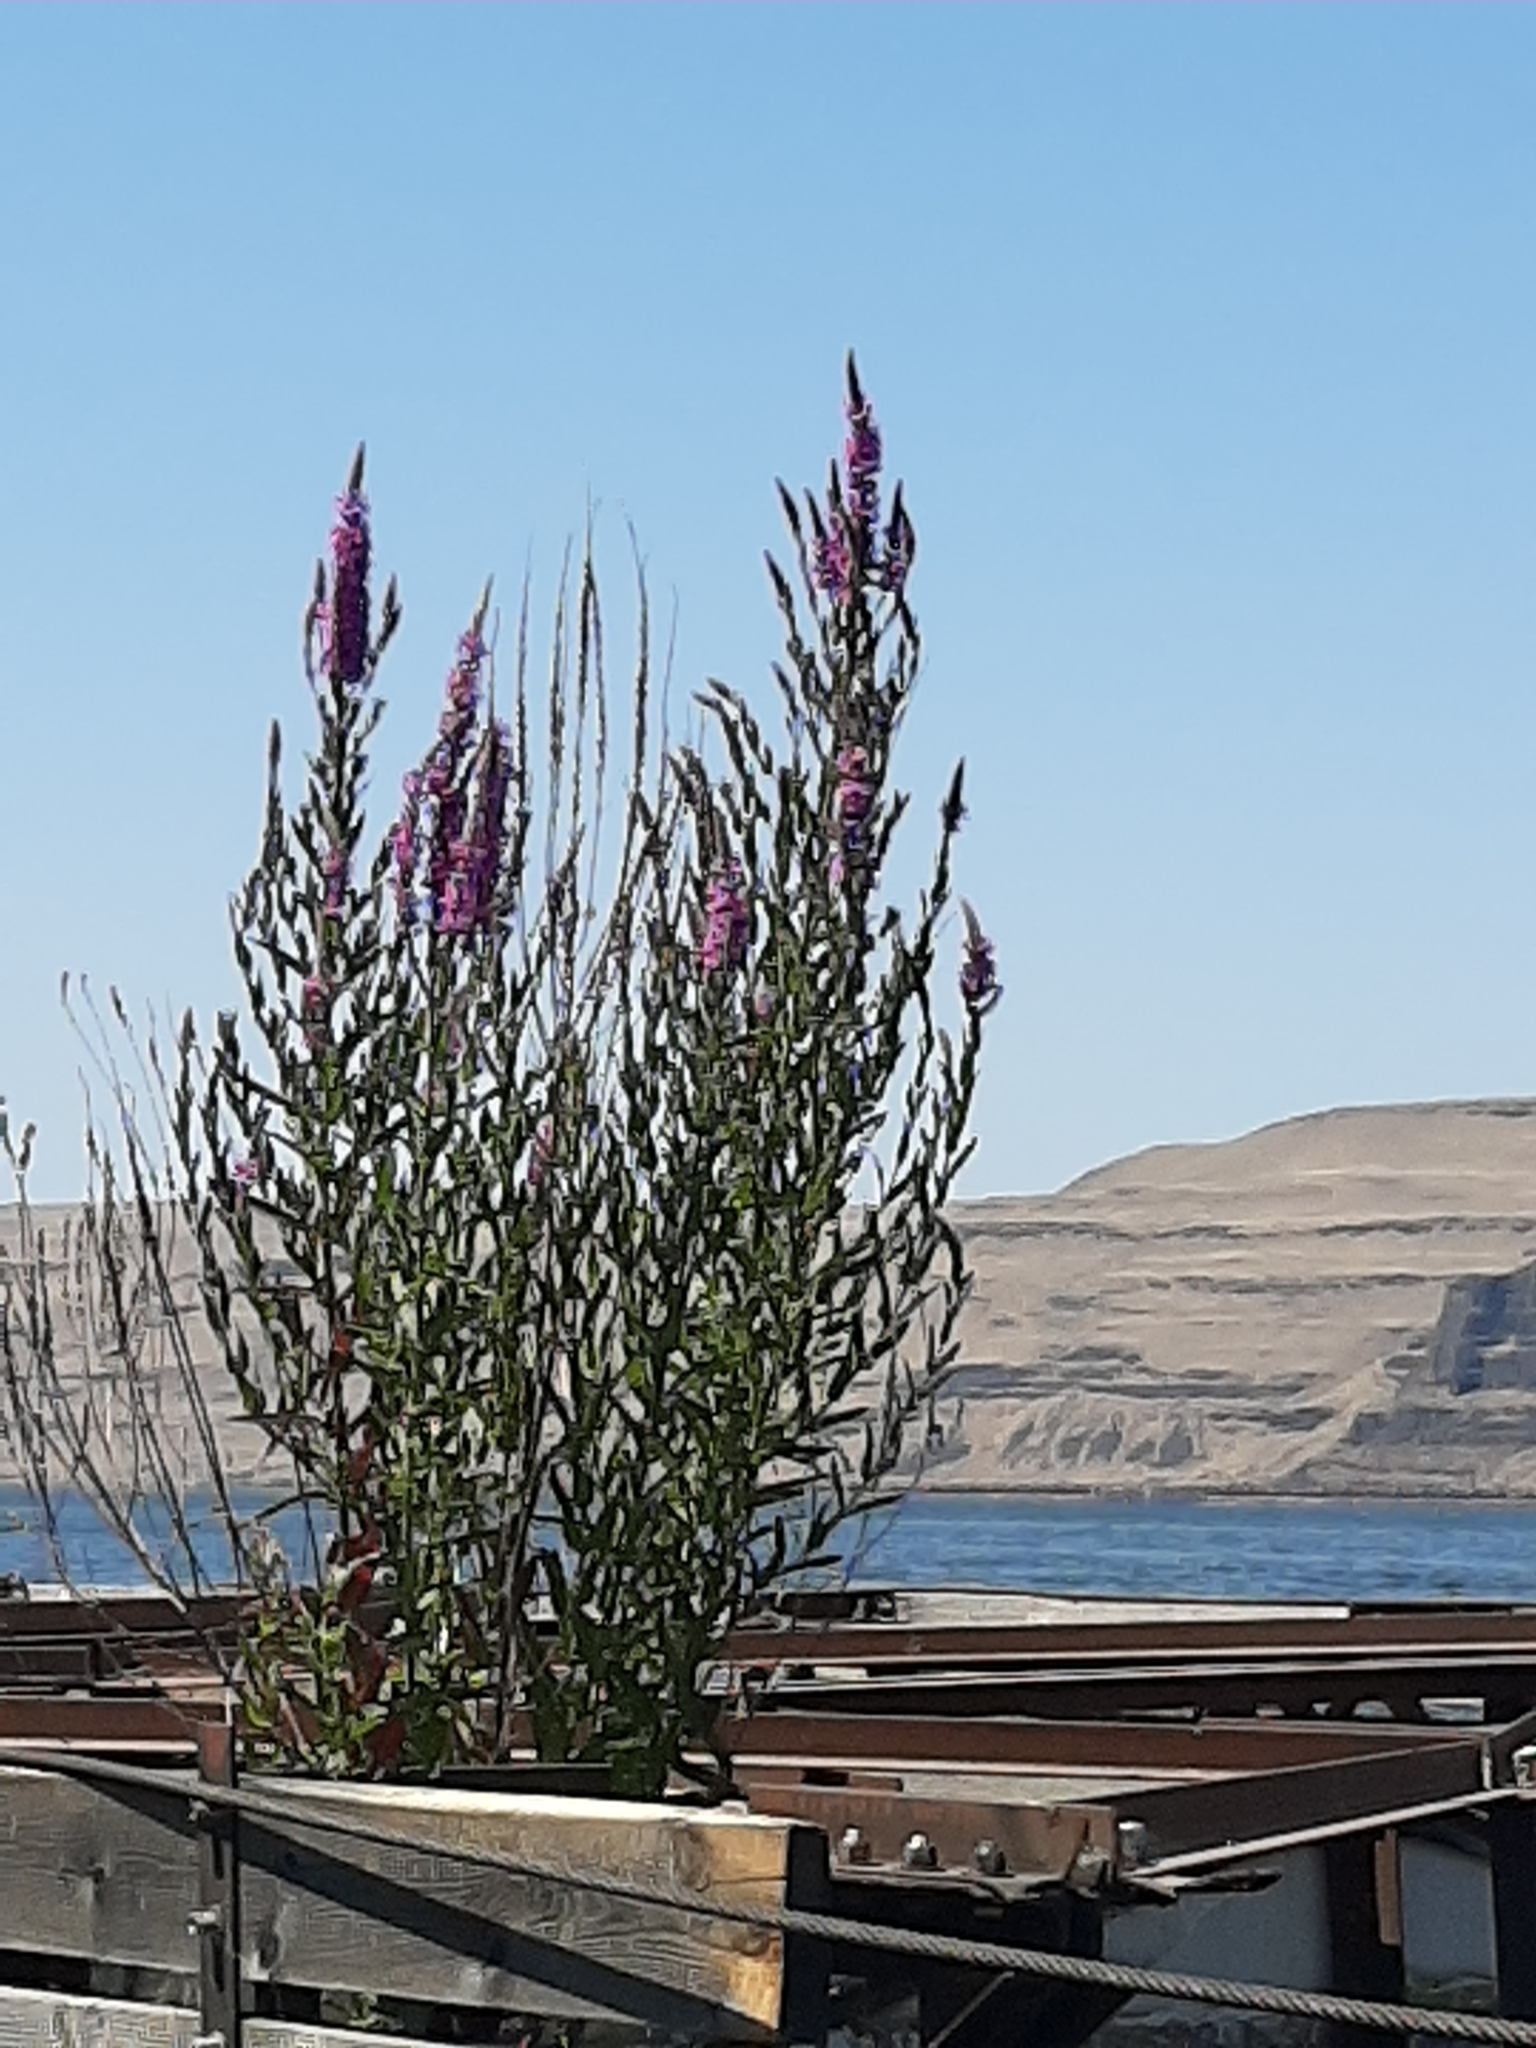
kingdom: Plantae
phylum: Tracheophyta
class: Magnoliopsida
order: Myrtales
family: Lythraceae
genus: Lythrum
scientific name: Lythrum salicaria
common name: Purple loosestrife
